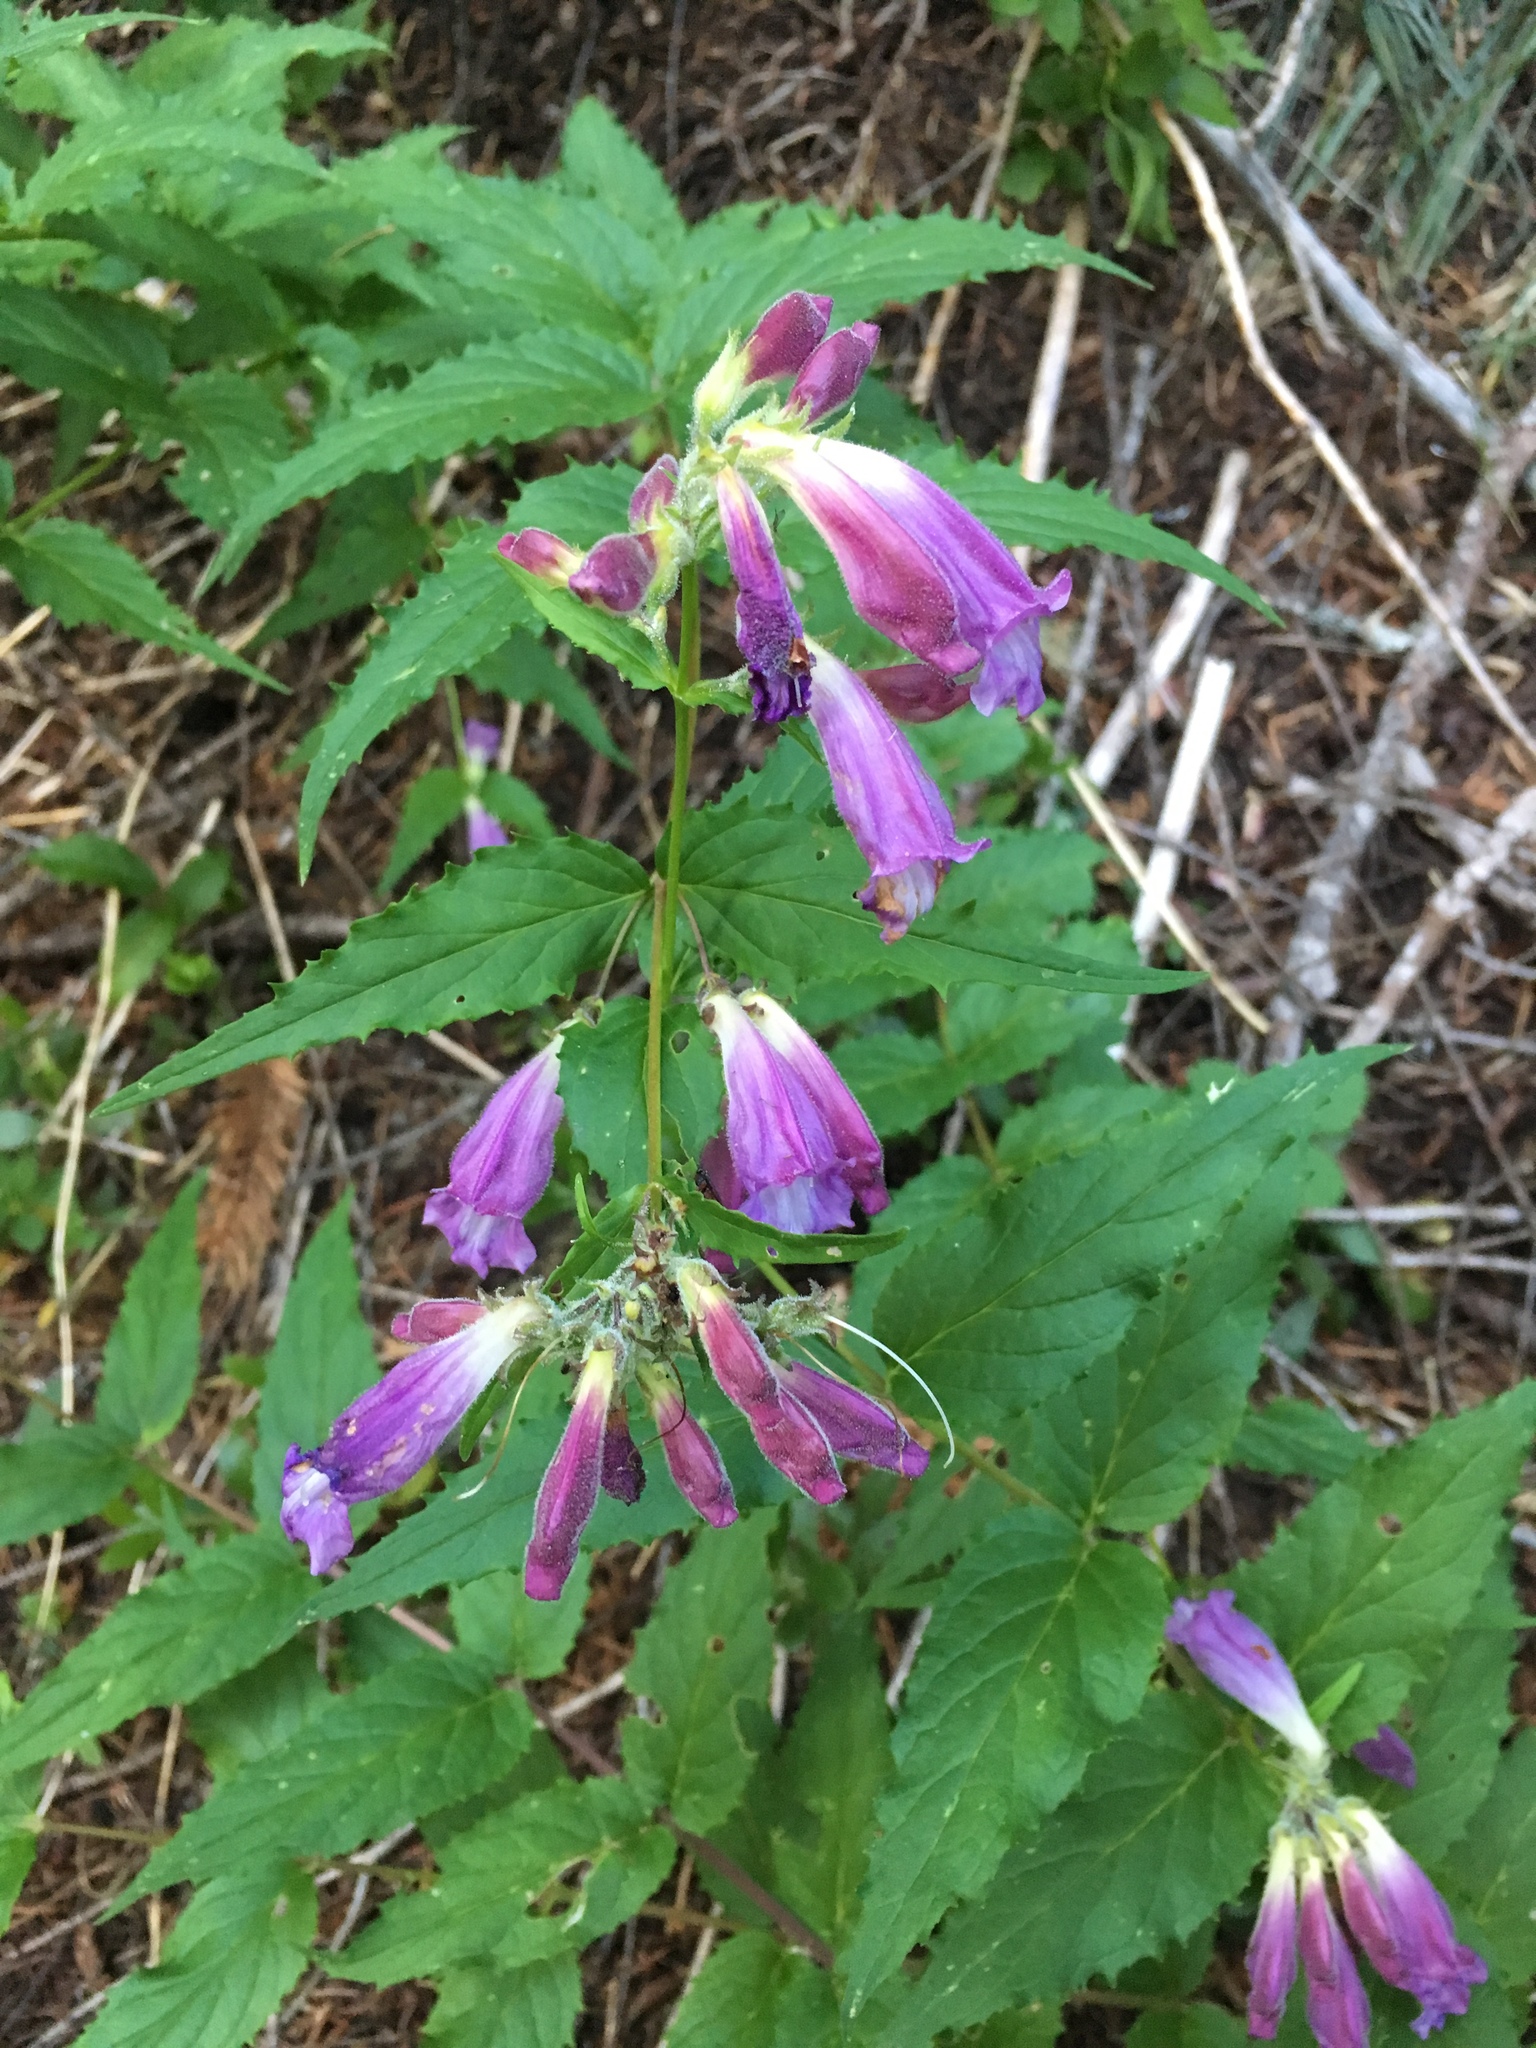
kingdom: Plantae
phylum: Tracheophyta
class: Magnoliopsida
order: Lamiales
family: Plantaginaceae
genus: Nothochelone
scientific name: Nothochelone nemorosa
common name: Woodland beardtongue
